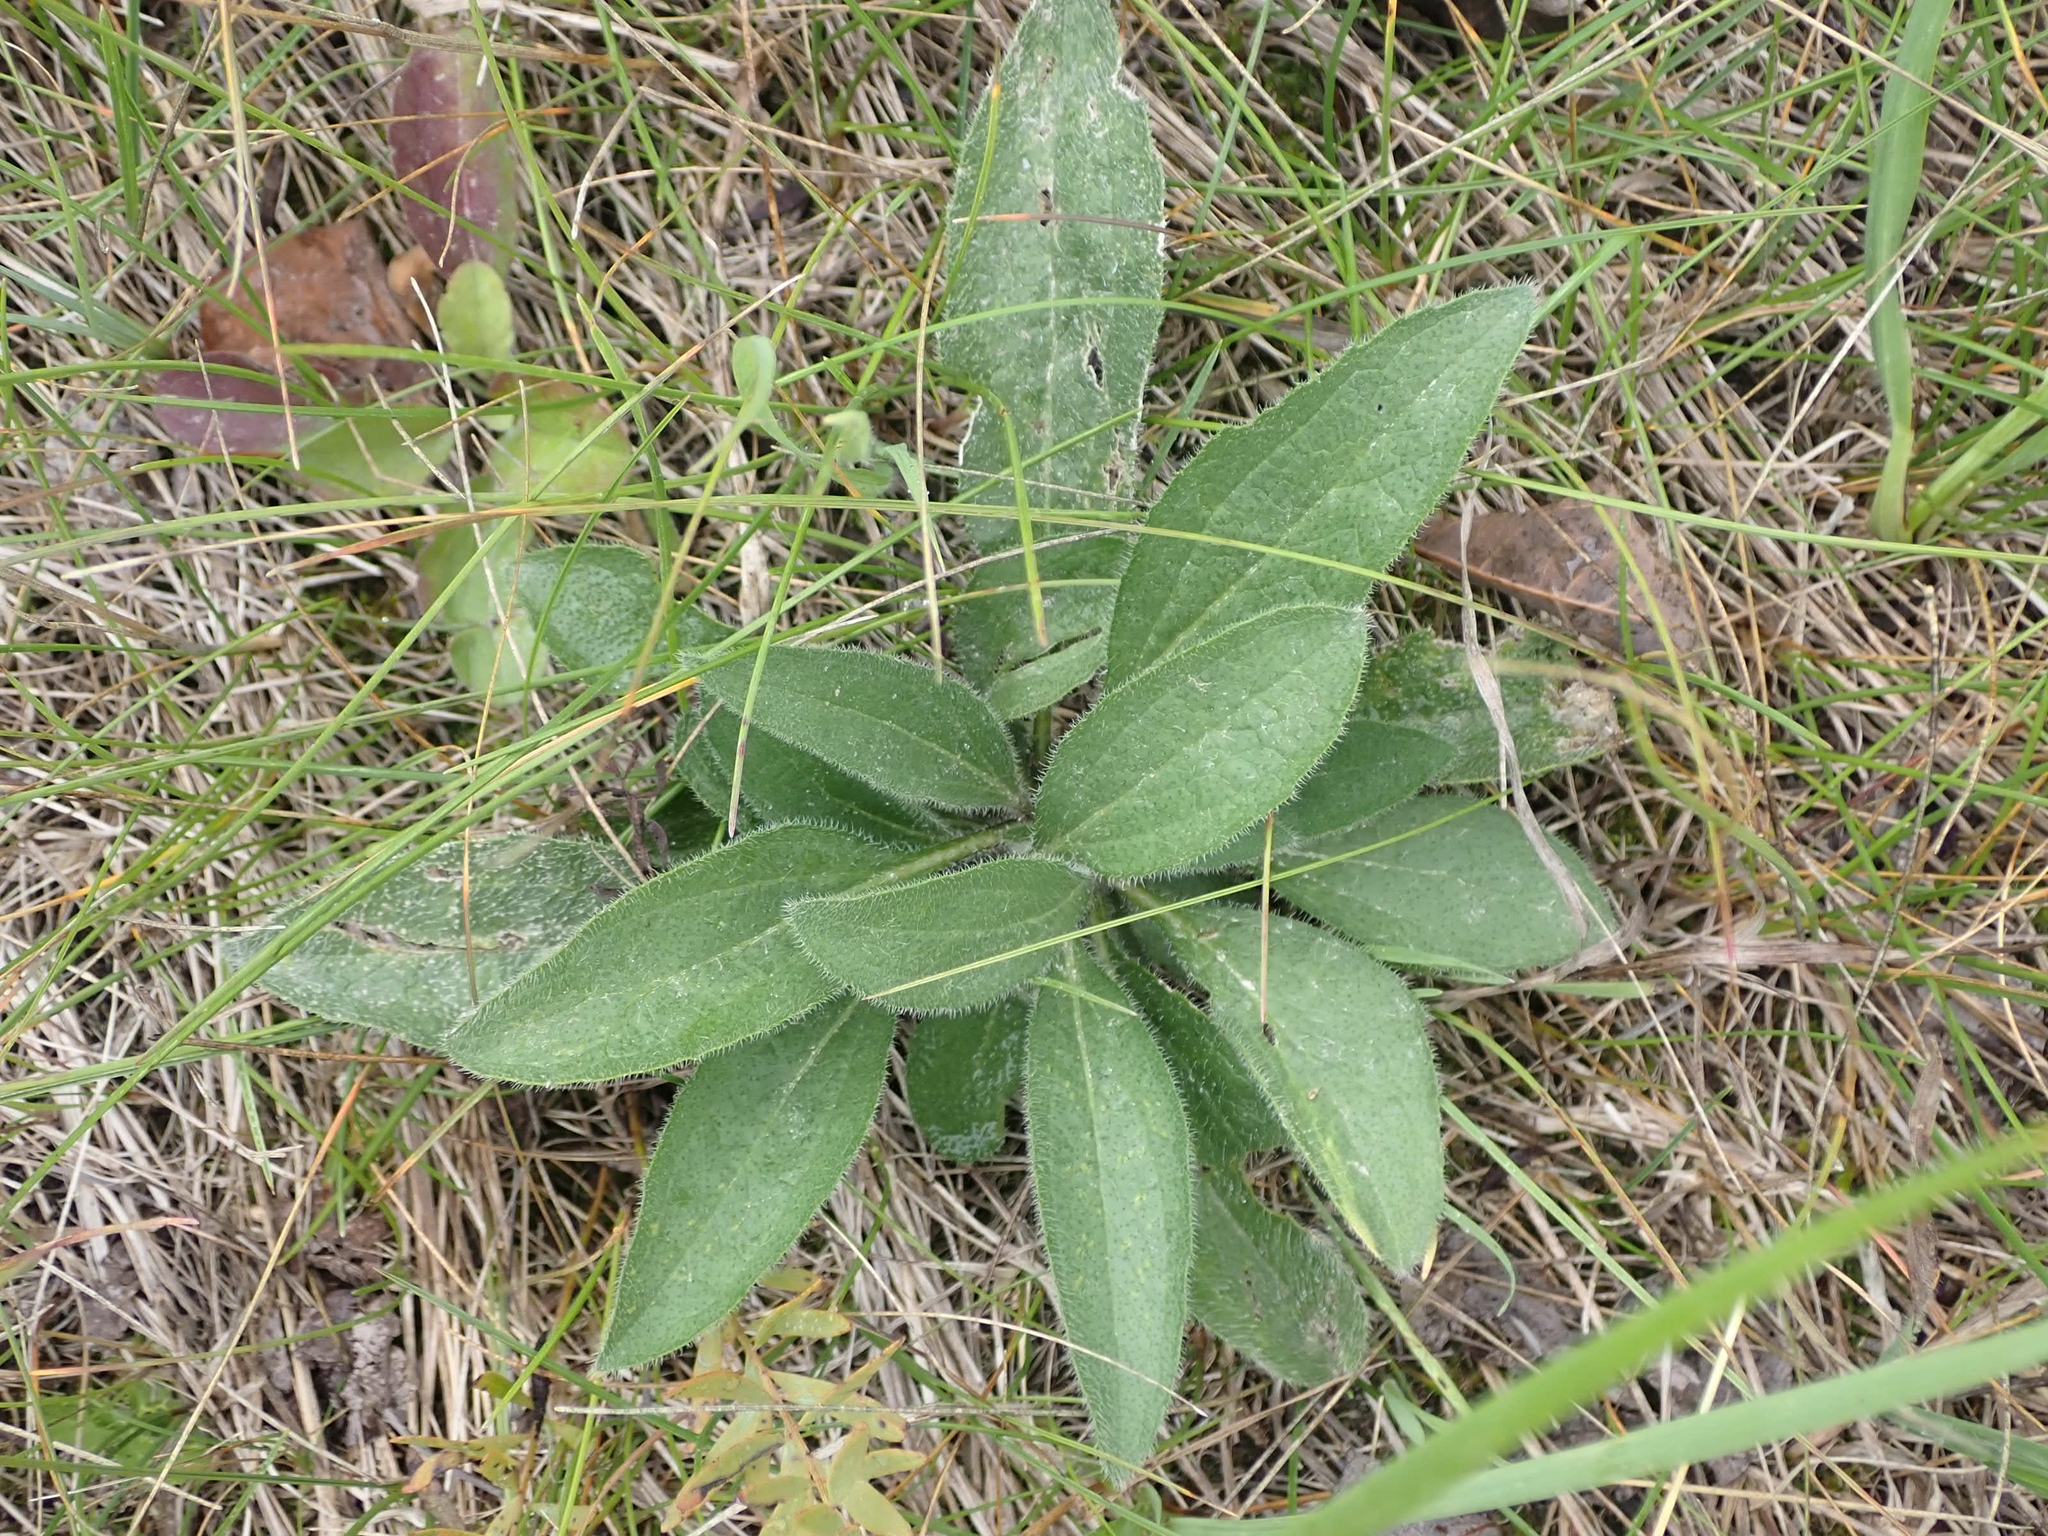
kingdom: Plantae
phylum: Tracheophyta
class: Magnoliopsida
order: Asterales
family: Asteraceae
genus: Rudbeckia
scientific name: Rudbeckia hirta
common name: Black-eyed-susan
